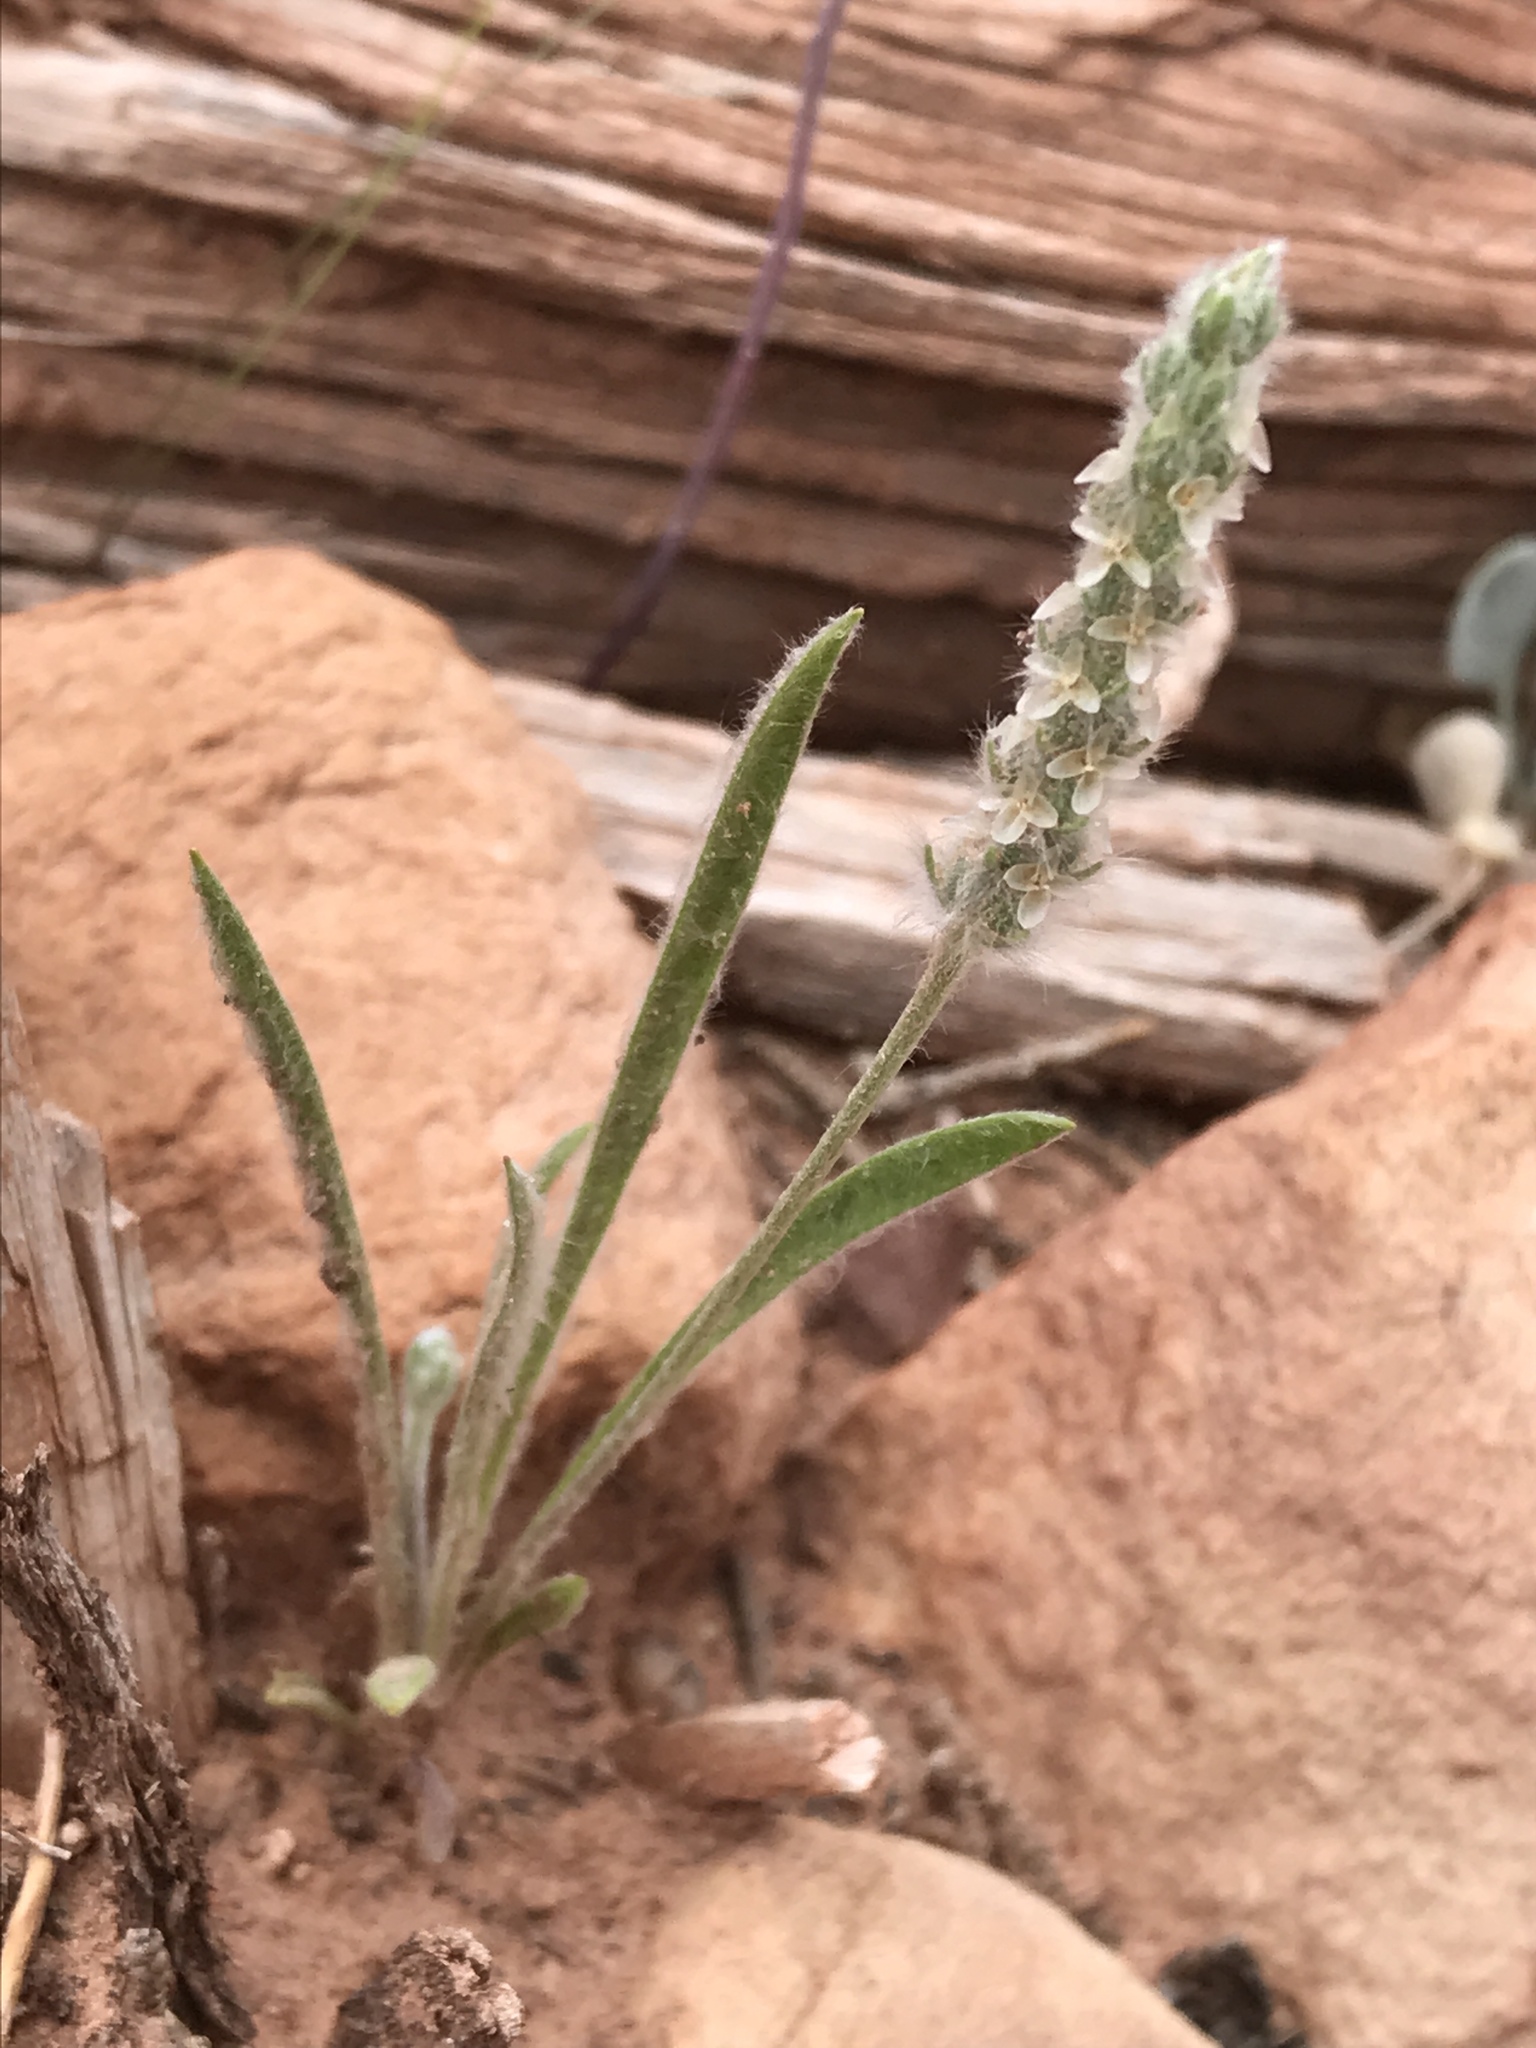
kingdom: Plantae
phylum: Tracheophyta
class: Magnoliopsida
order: Lamiales
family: Plantaginaceae
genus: Plantago
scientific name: Plantago patagonica
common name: Patagonia indian-wheat
